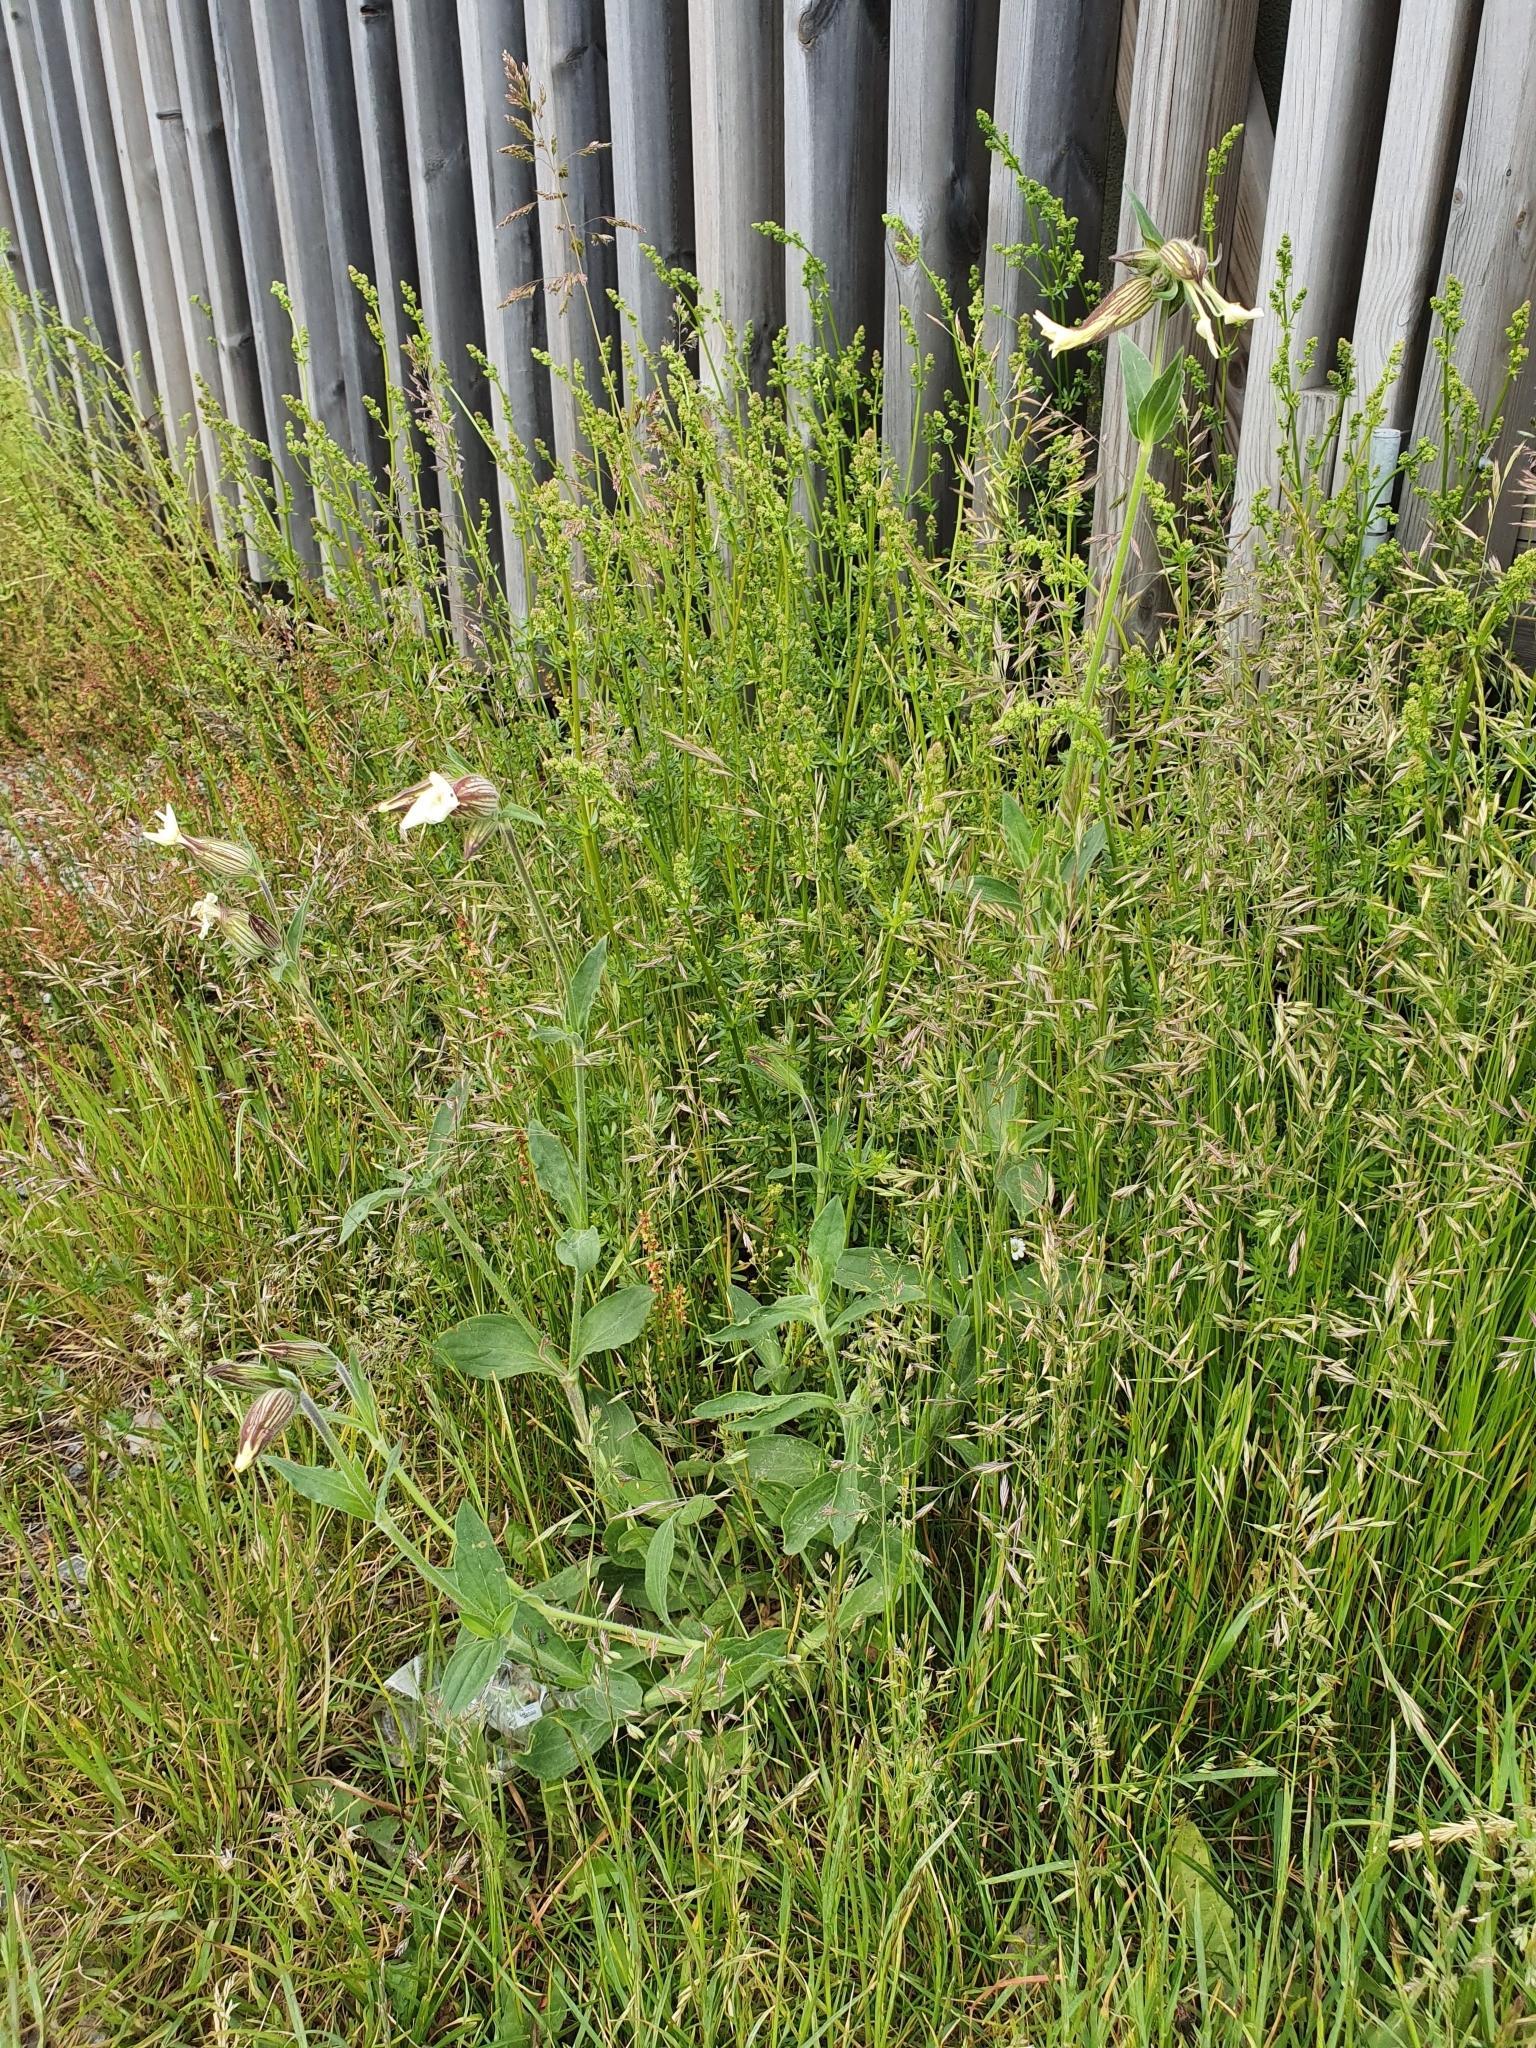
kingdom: Plantae
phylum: Tracheophyta
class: Magnoliopsida
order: Caryophyllales
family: Caryophyllaceae
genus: Silene
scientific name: Silene latifolia
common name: White campion
